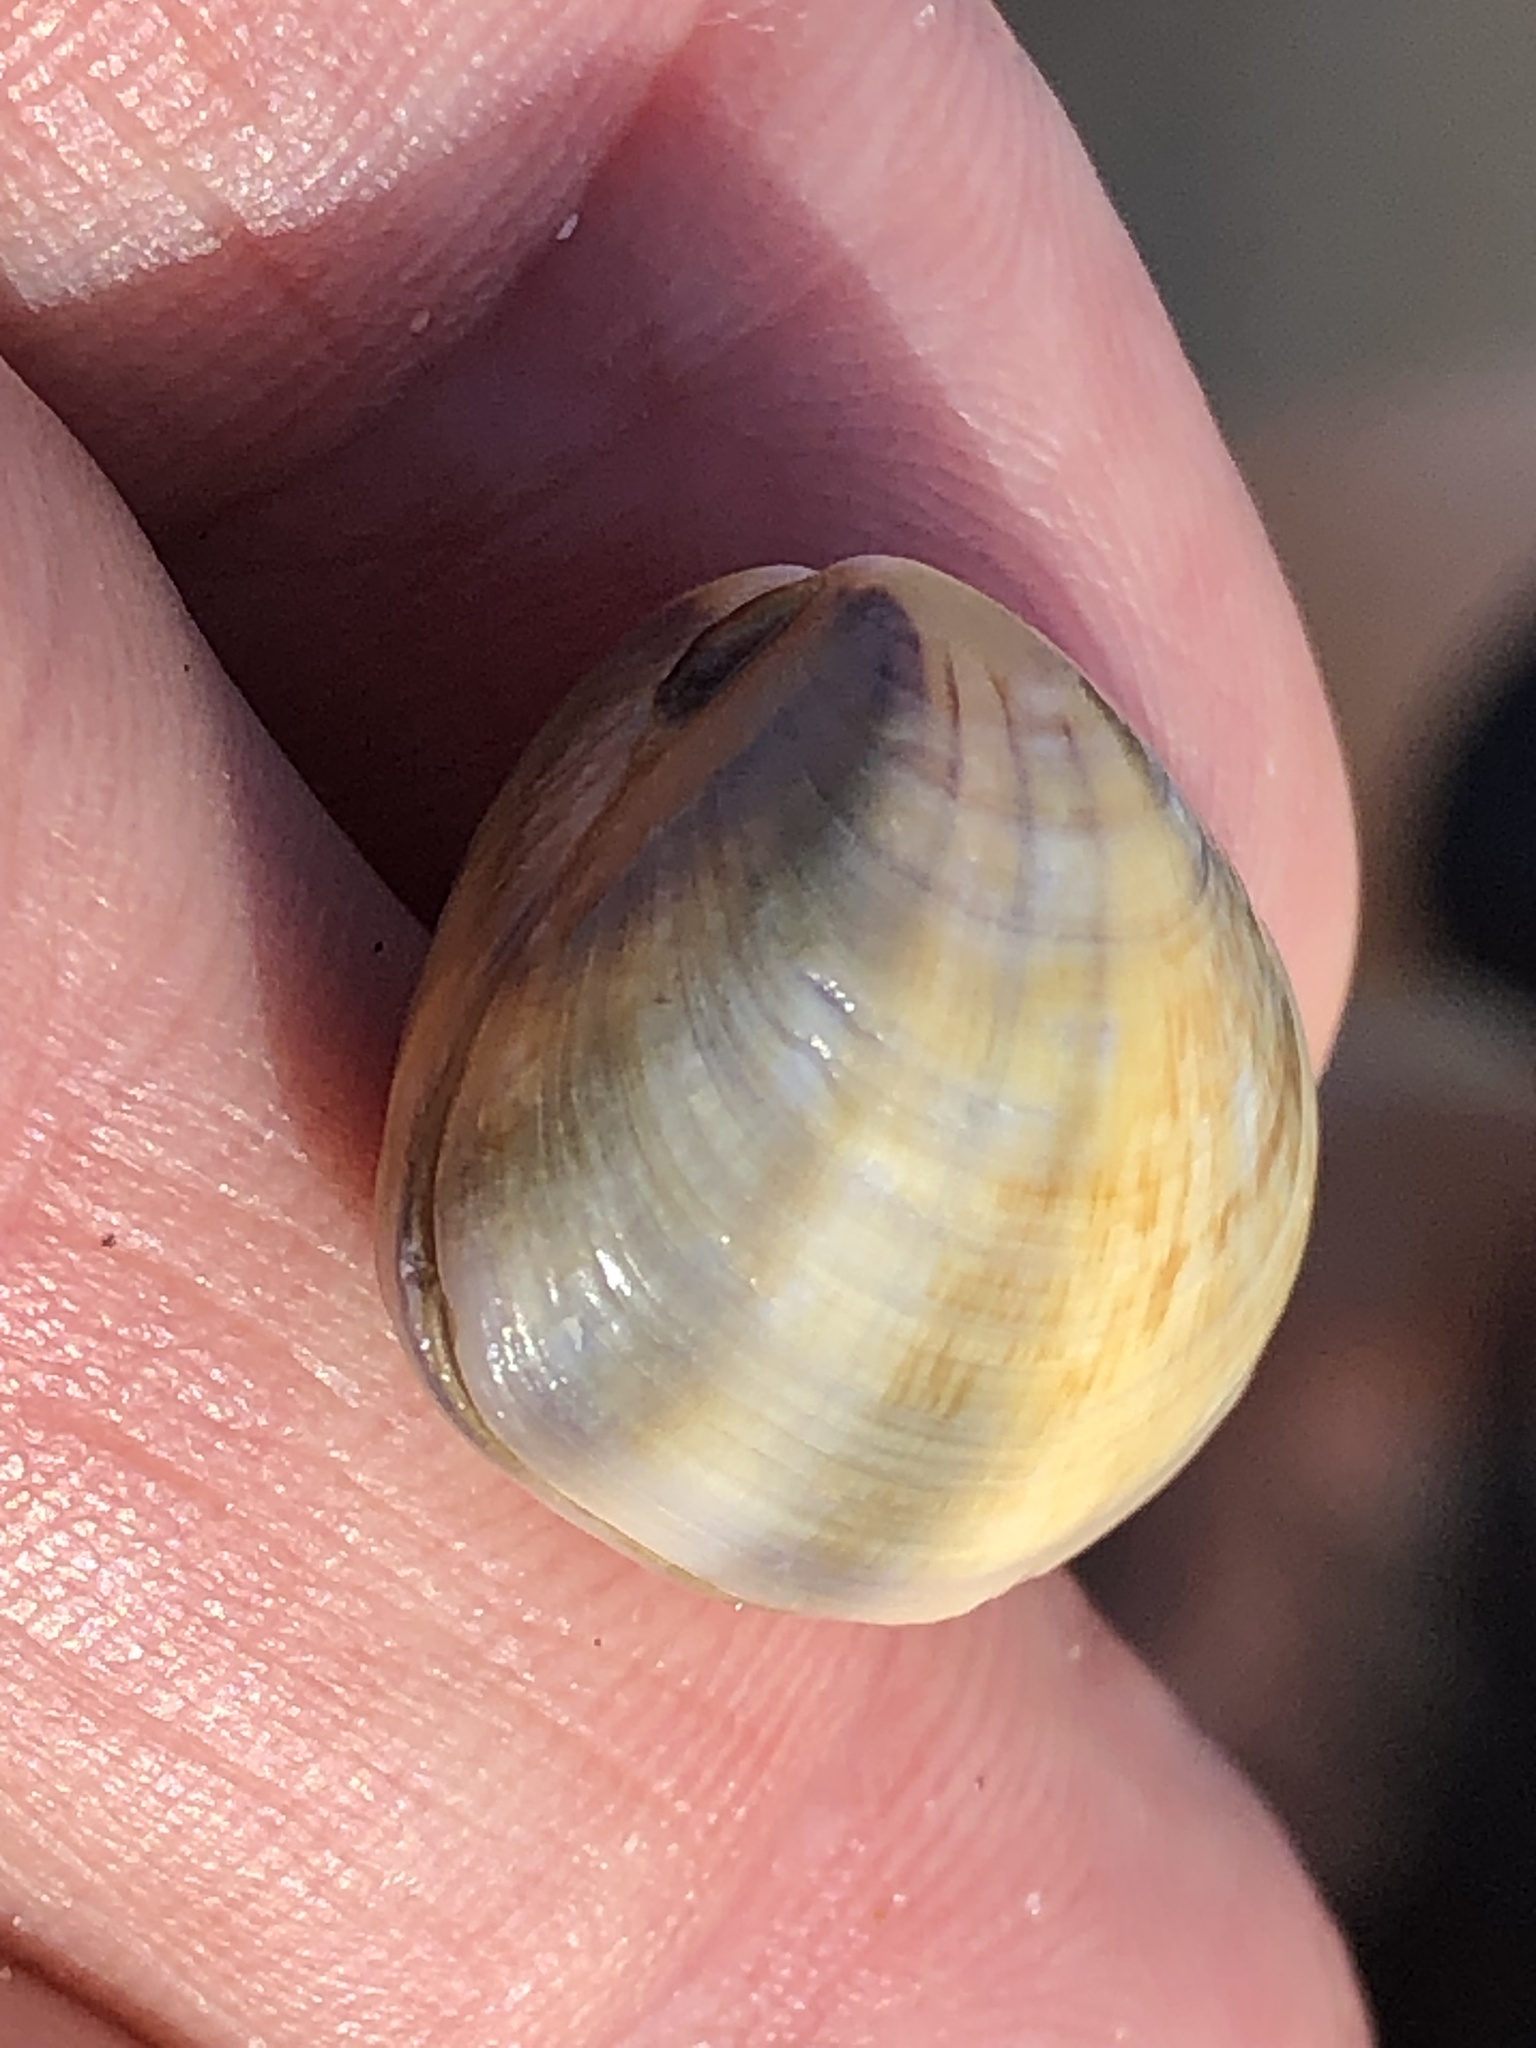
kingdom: Animalia
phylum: Mollusca
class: Bivalvia
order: Cardiida
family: Donacidae
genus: Donax
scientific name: Donax faba
